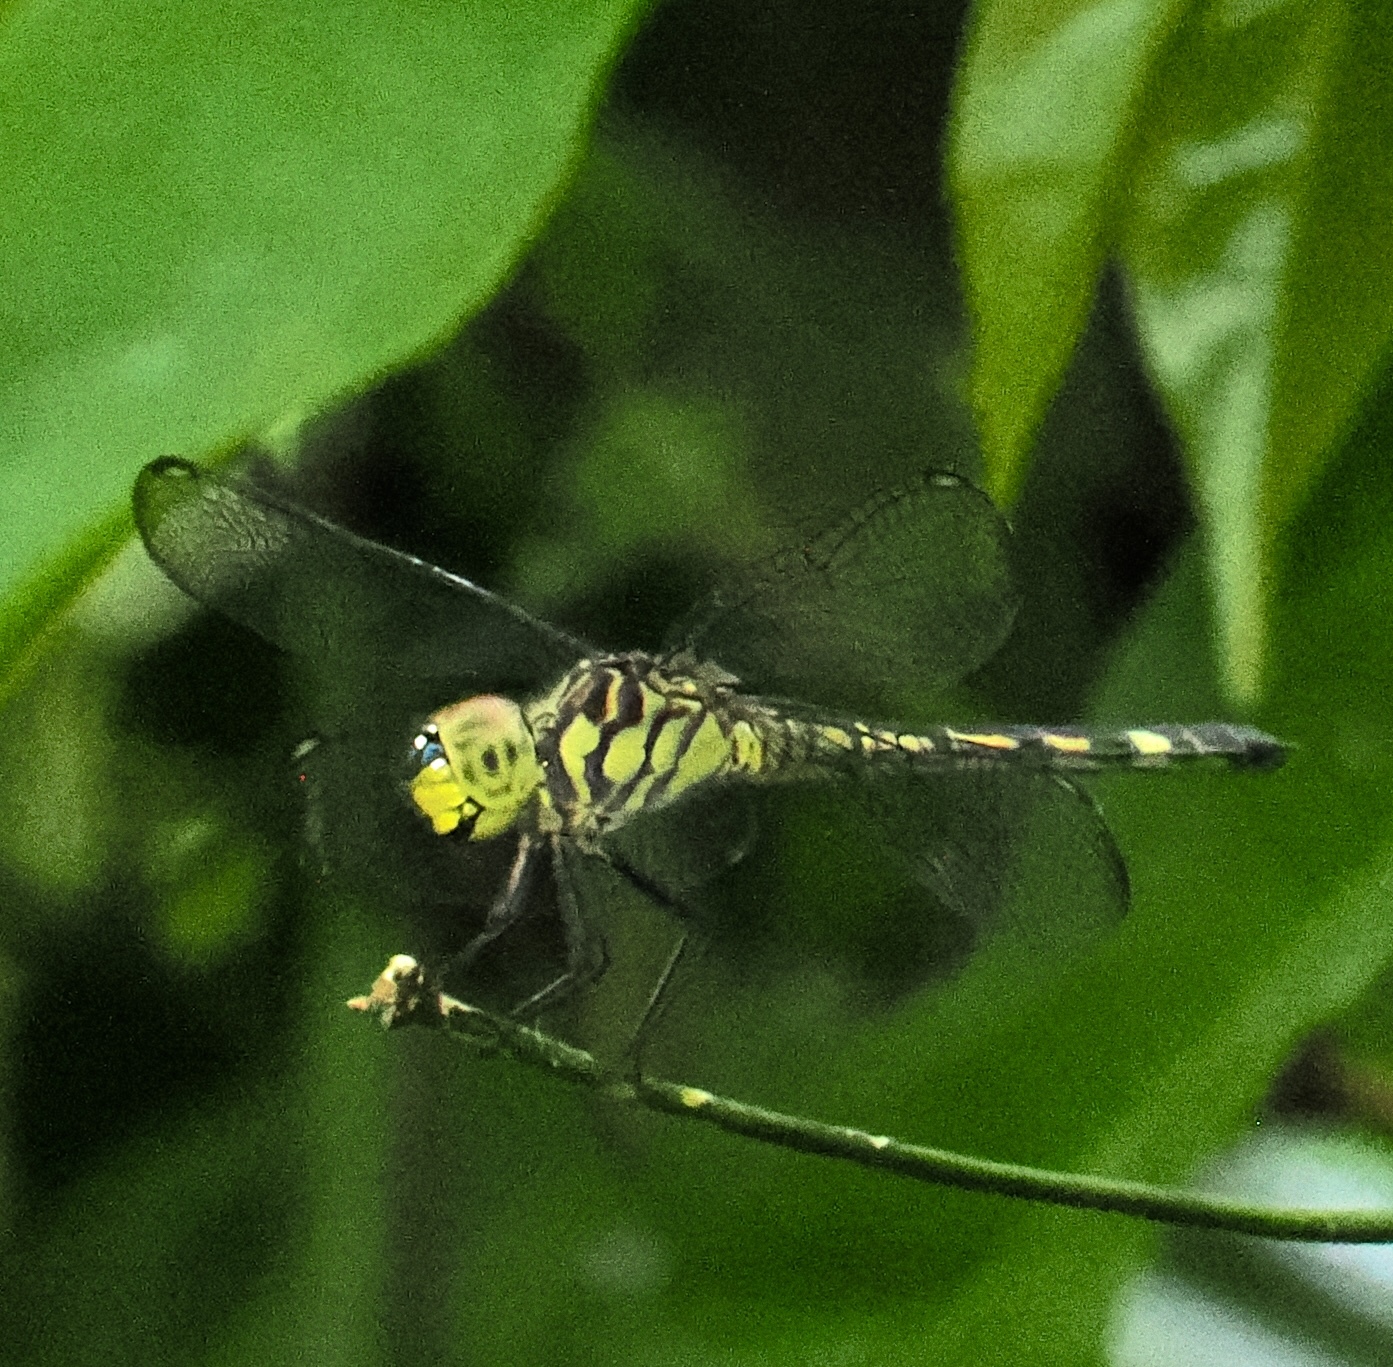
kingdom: Animalia
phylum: Arthropoda
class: Insecta
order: Odonata
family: Libellulidae
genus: Chalcostephia
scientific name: Chalcostephia flavifrons
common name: Inspector
